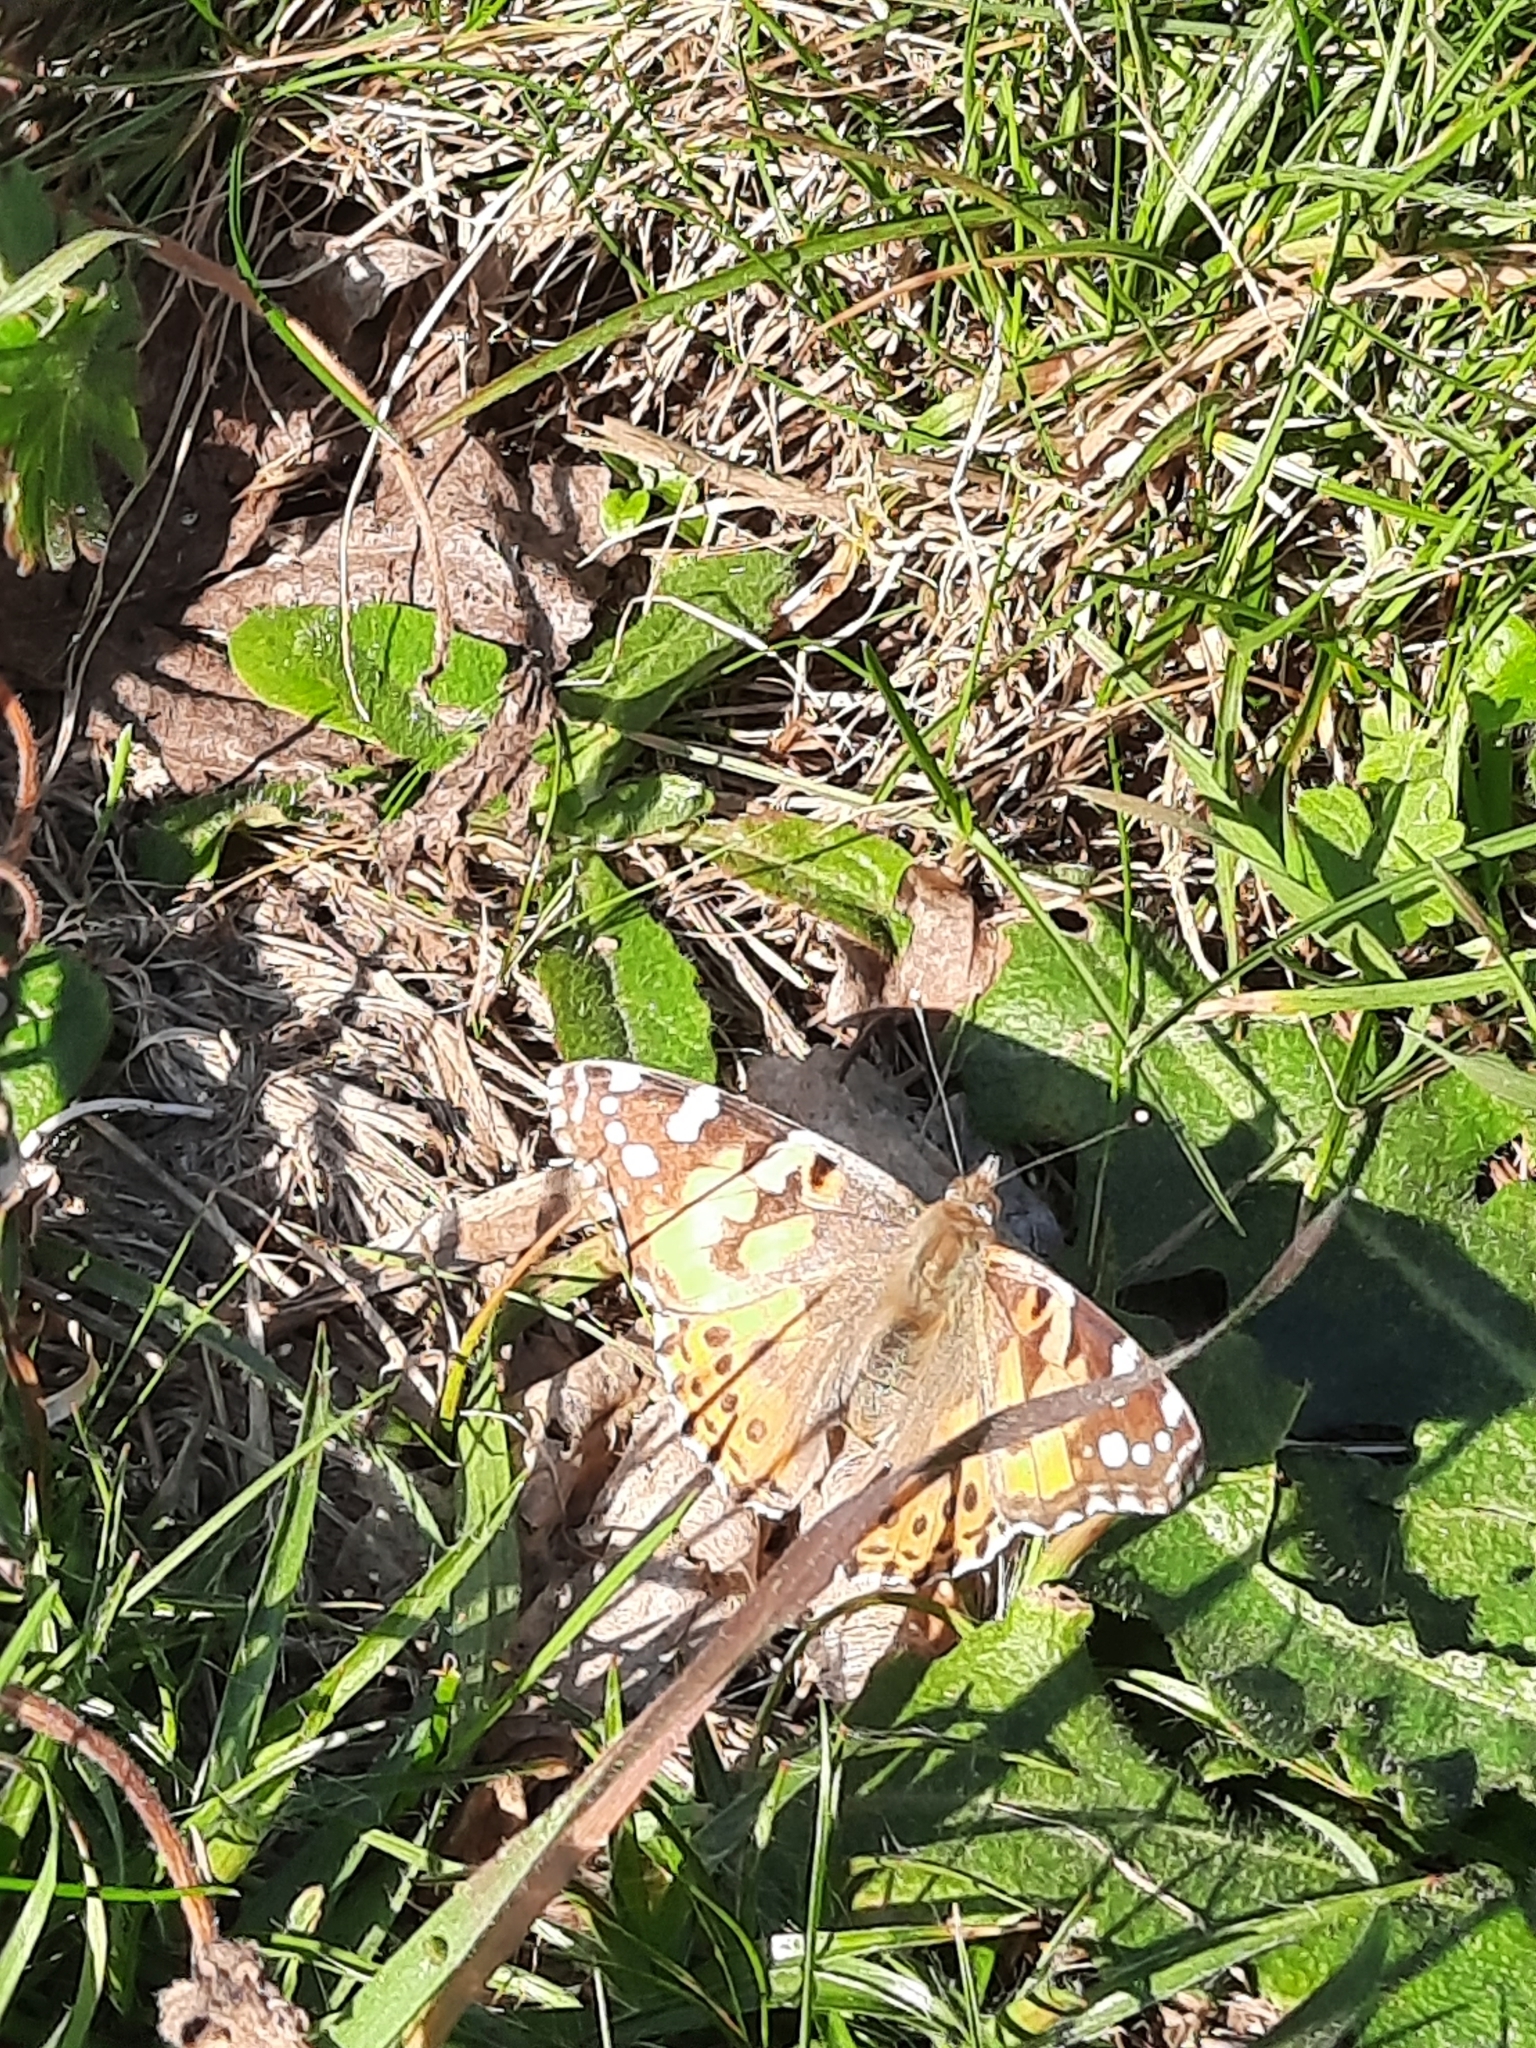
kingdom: Animalia
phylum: Arthropoda
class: Insecta
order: Lepidoptera
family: Nymphalidae
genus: Vanessa
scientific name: Vanessa cardui
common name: Painted lady
